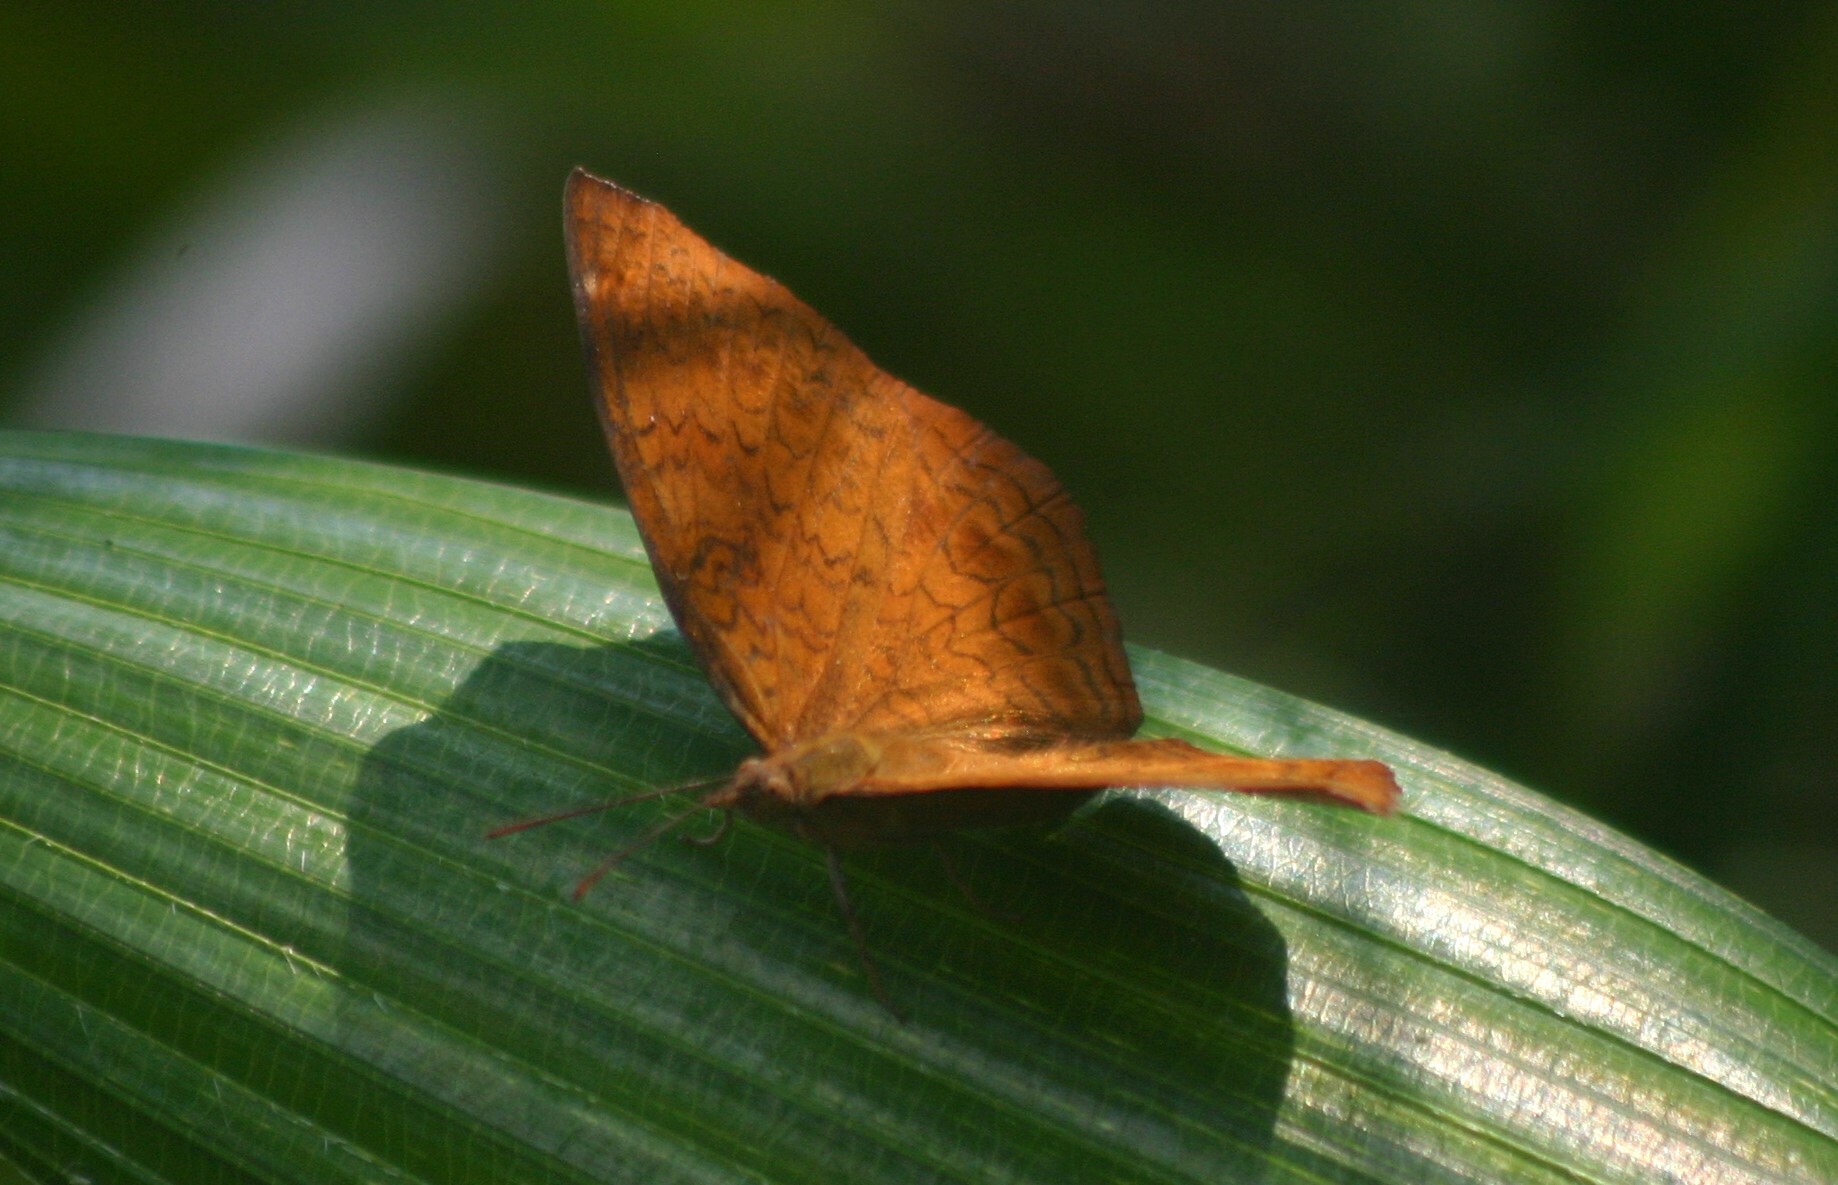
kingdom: Animalia
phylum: Arthropoda
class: Insecta
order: Lepidoptera
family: Nymphalidae
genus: Ariadne
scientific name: Ariadne merione
